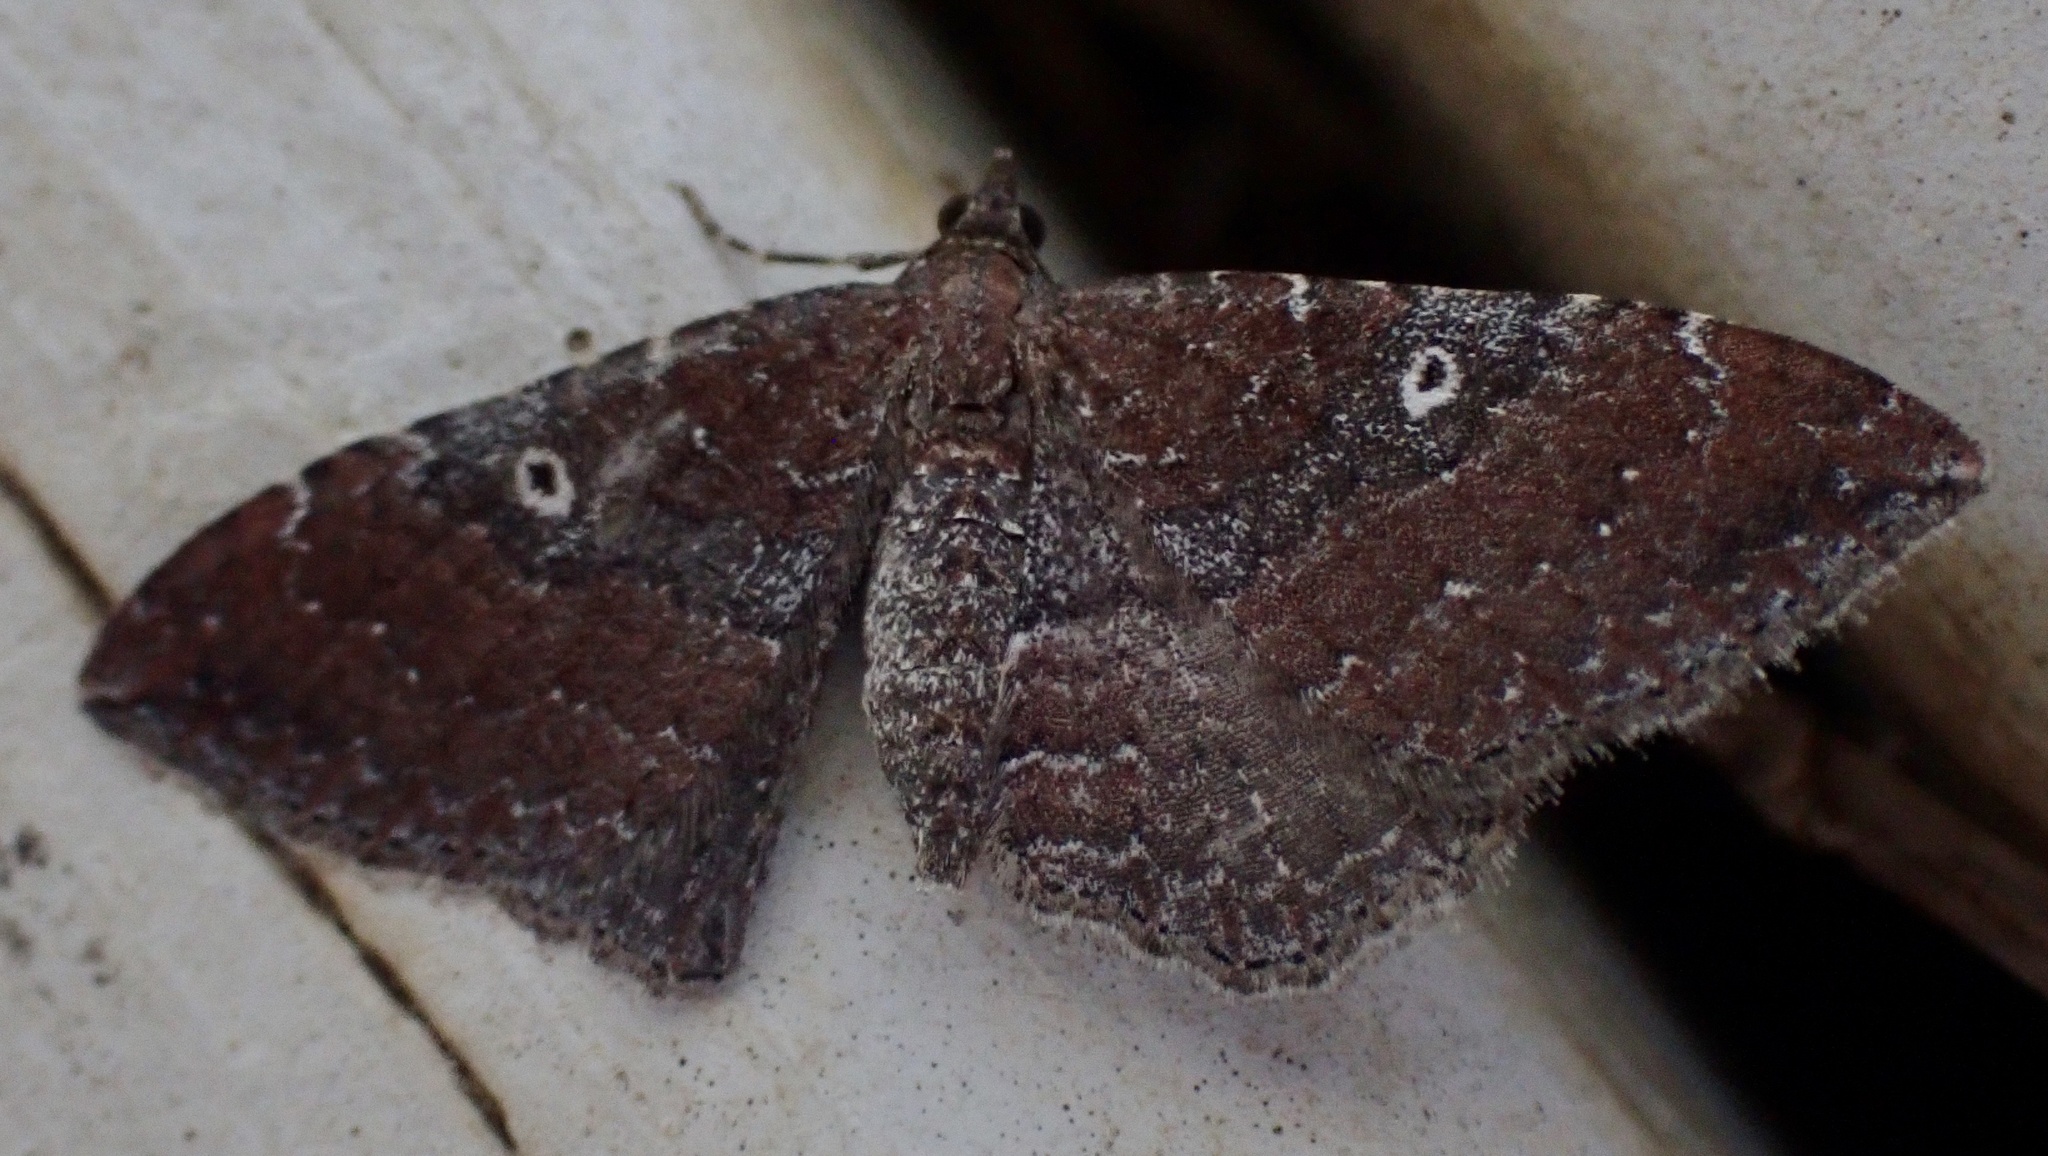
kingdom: Animalia
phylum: Arthropoda
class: Insecta
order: Lepidoptera
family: Geometridae
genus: Orthonama
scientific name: Orthonama obstipata
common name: The gem
